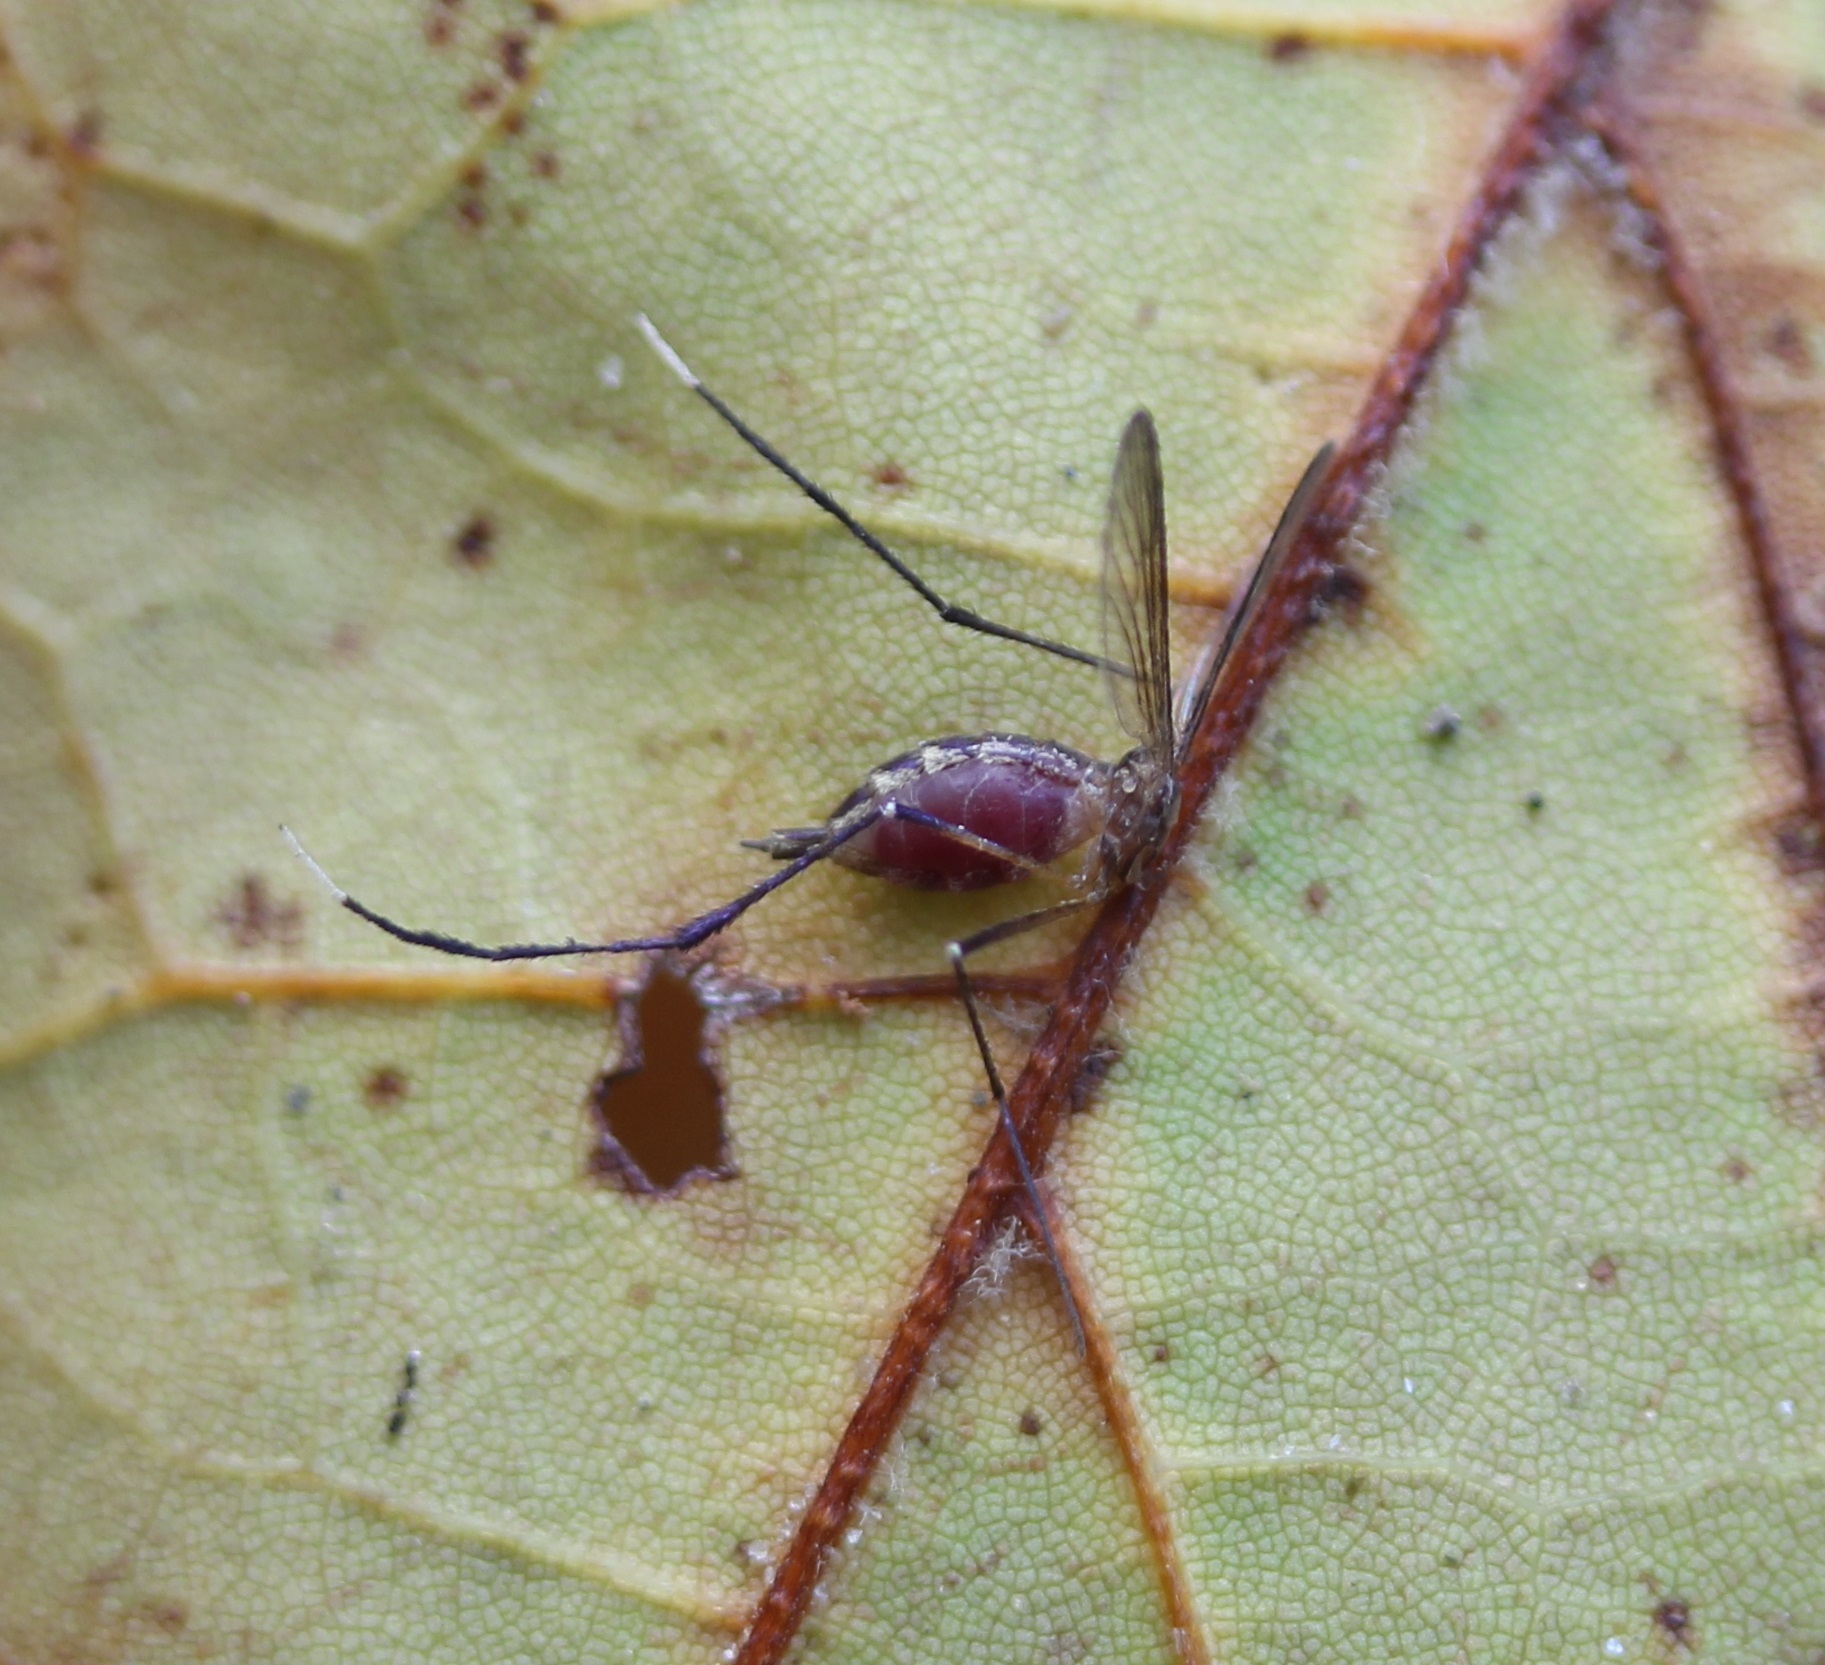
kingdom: Animalia
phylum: Arthropoda
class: Insecta
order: Diptera
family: Culicidae
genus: Psorophora
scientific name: Psorophora ferox
